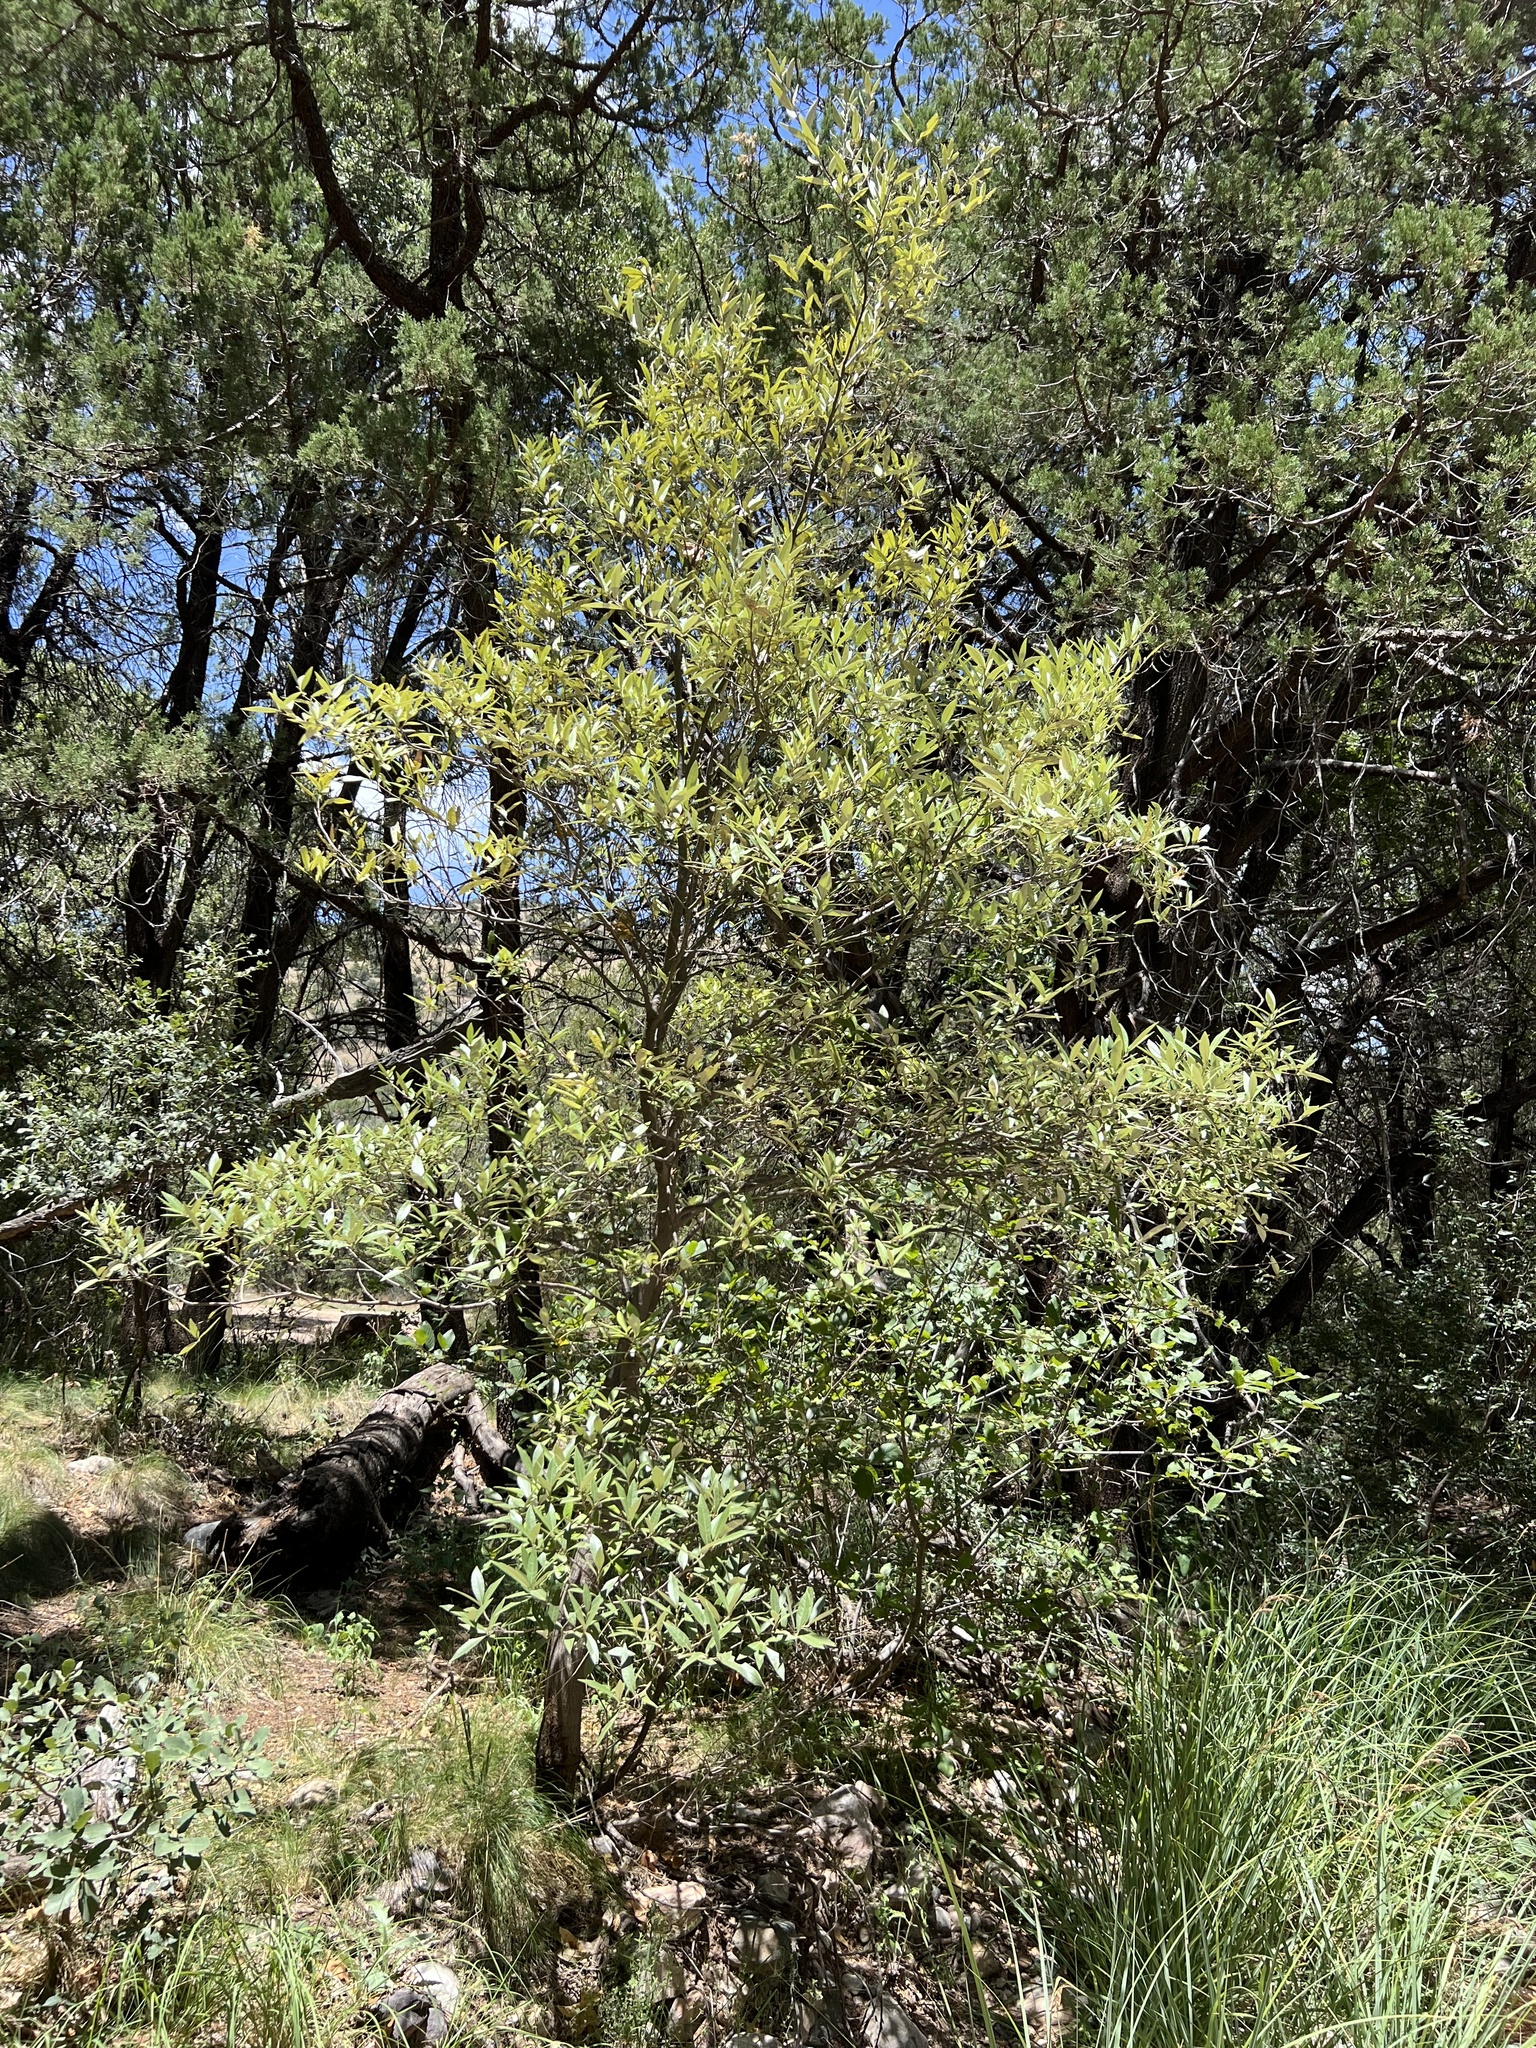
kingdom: Plantae
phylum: Tracheophyta
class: Magnoliopsida
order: Fagales
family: Fagaceae
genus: Quercus
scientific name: Quercus hypoleucoides
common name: Silverleaf oak
